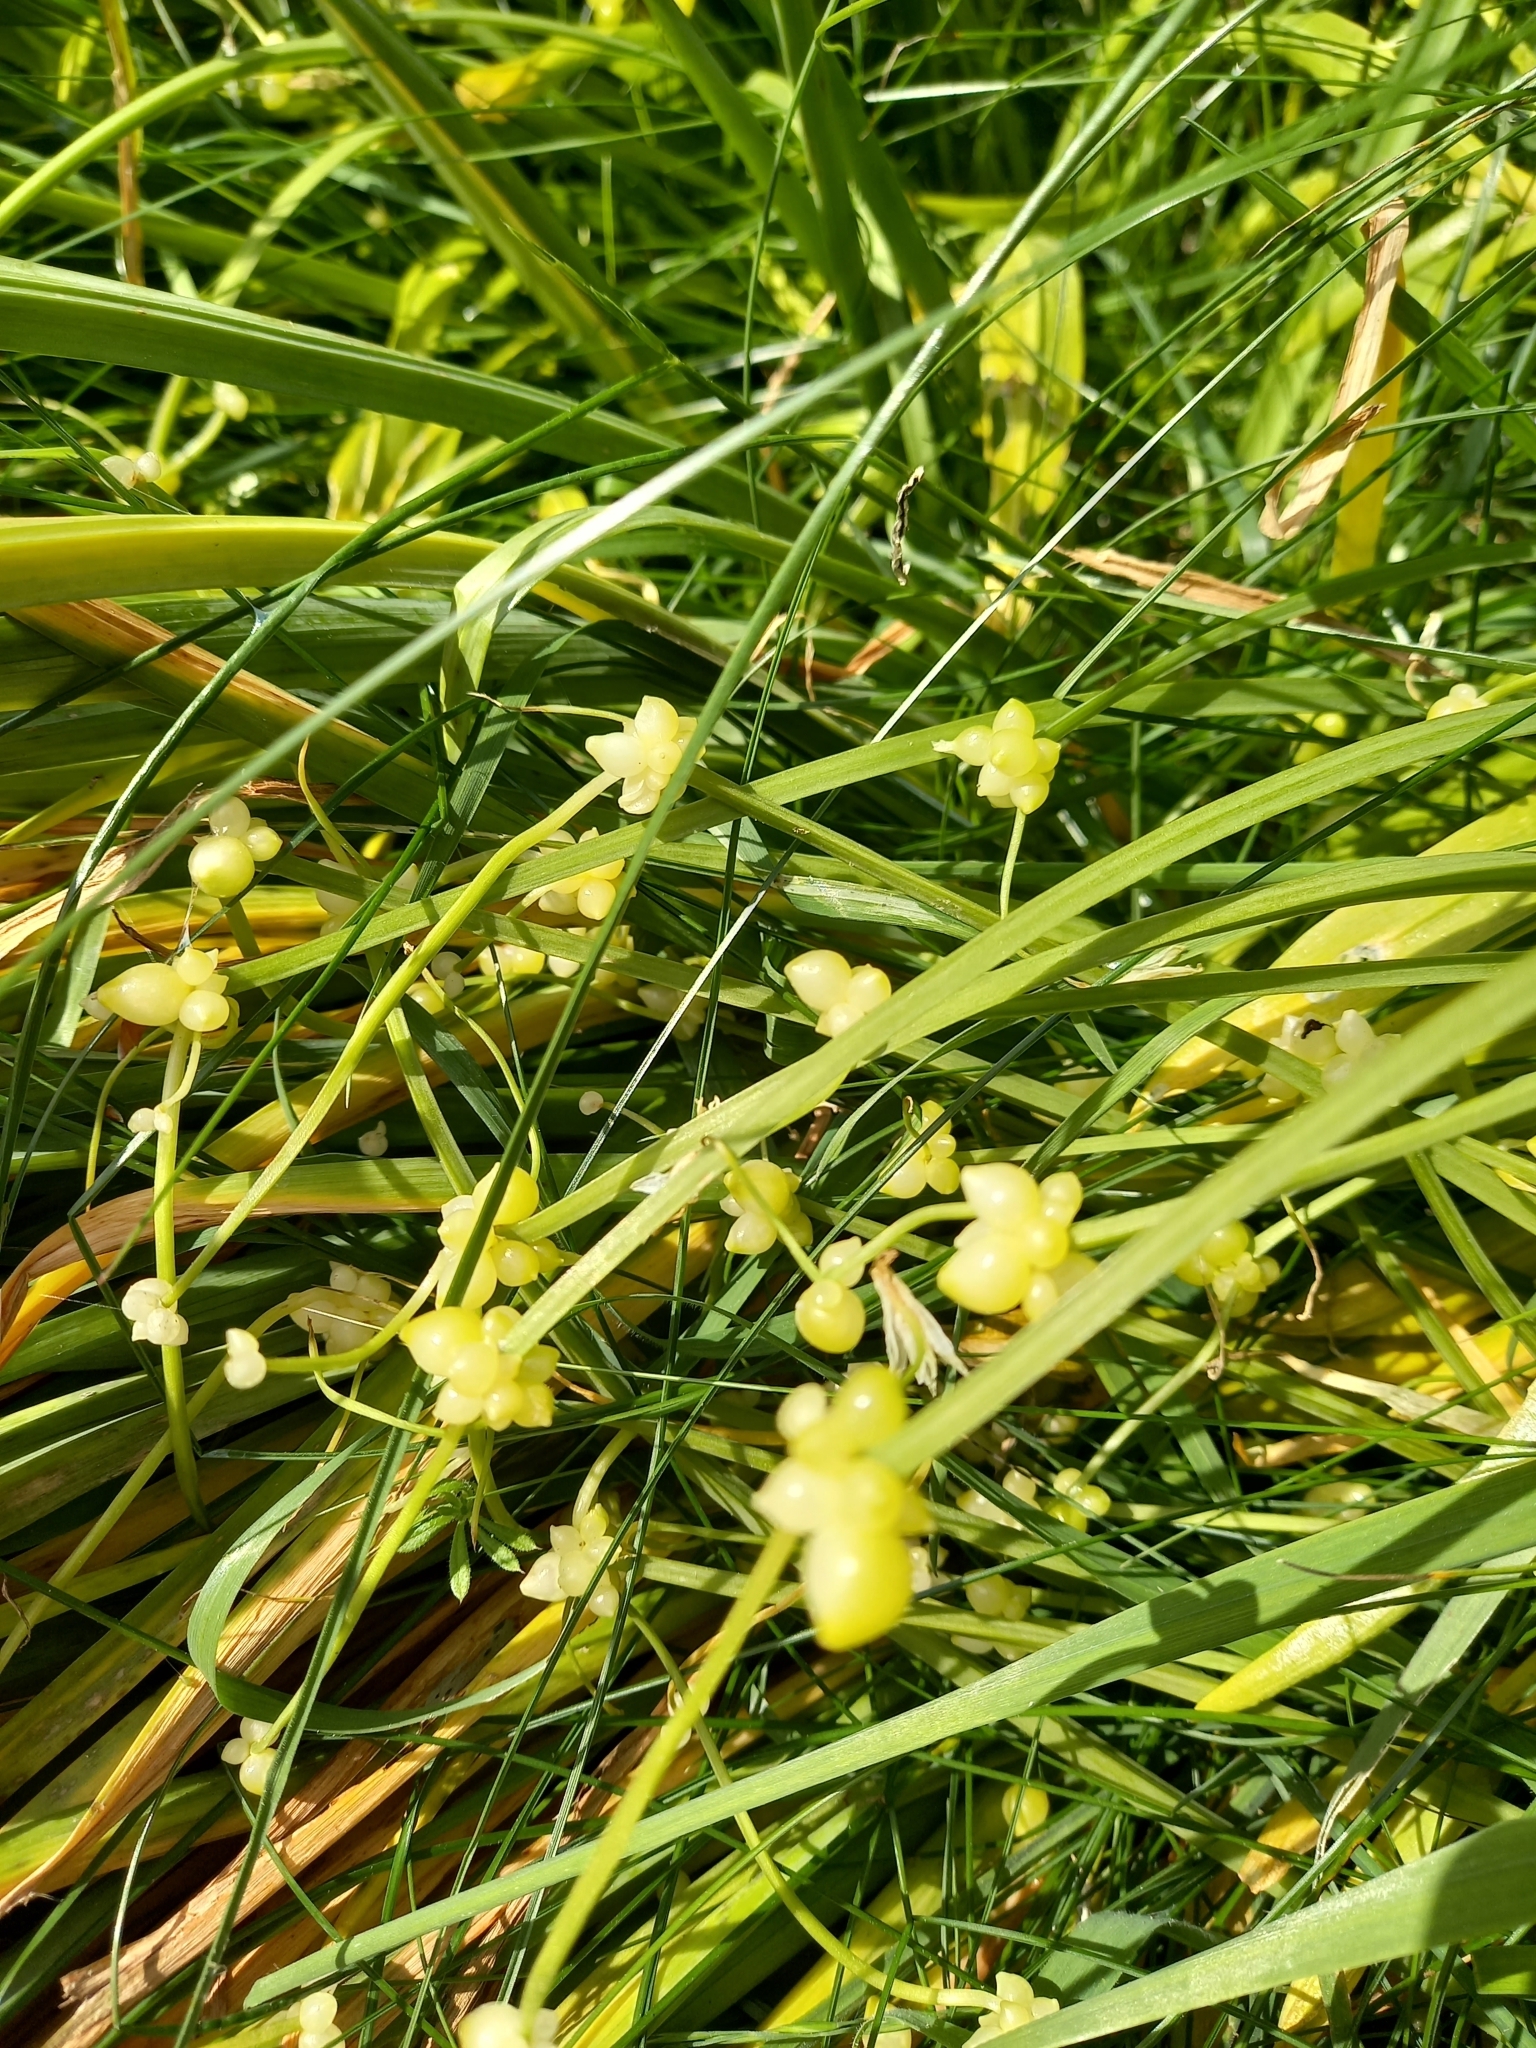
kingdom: Plantae
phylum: Tracheophyta
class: Liliopsida
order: Asparagales
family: Amaryllidaceae
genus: Allium
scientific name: Allium paradoxum
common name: Few-flowered garlic
